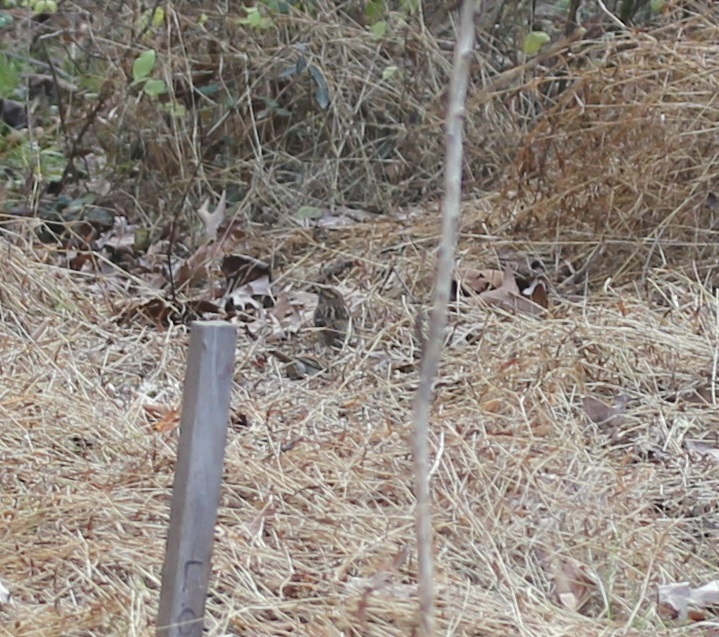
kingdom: Animalia
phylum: Chordata
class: Aves
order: Passeriformes
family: Passerellidae
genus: Zonotrichia
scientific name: Zonotrichia albicollis
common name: White-throated sparrow
